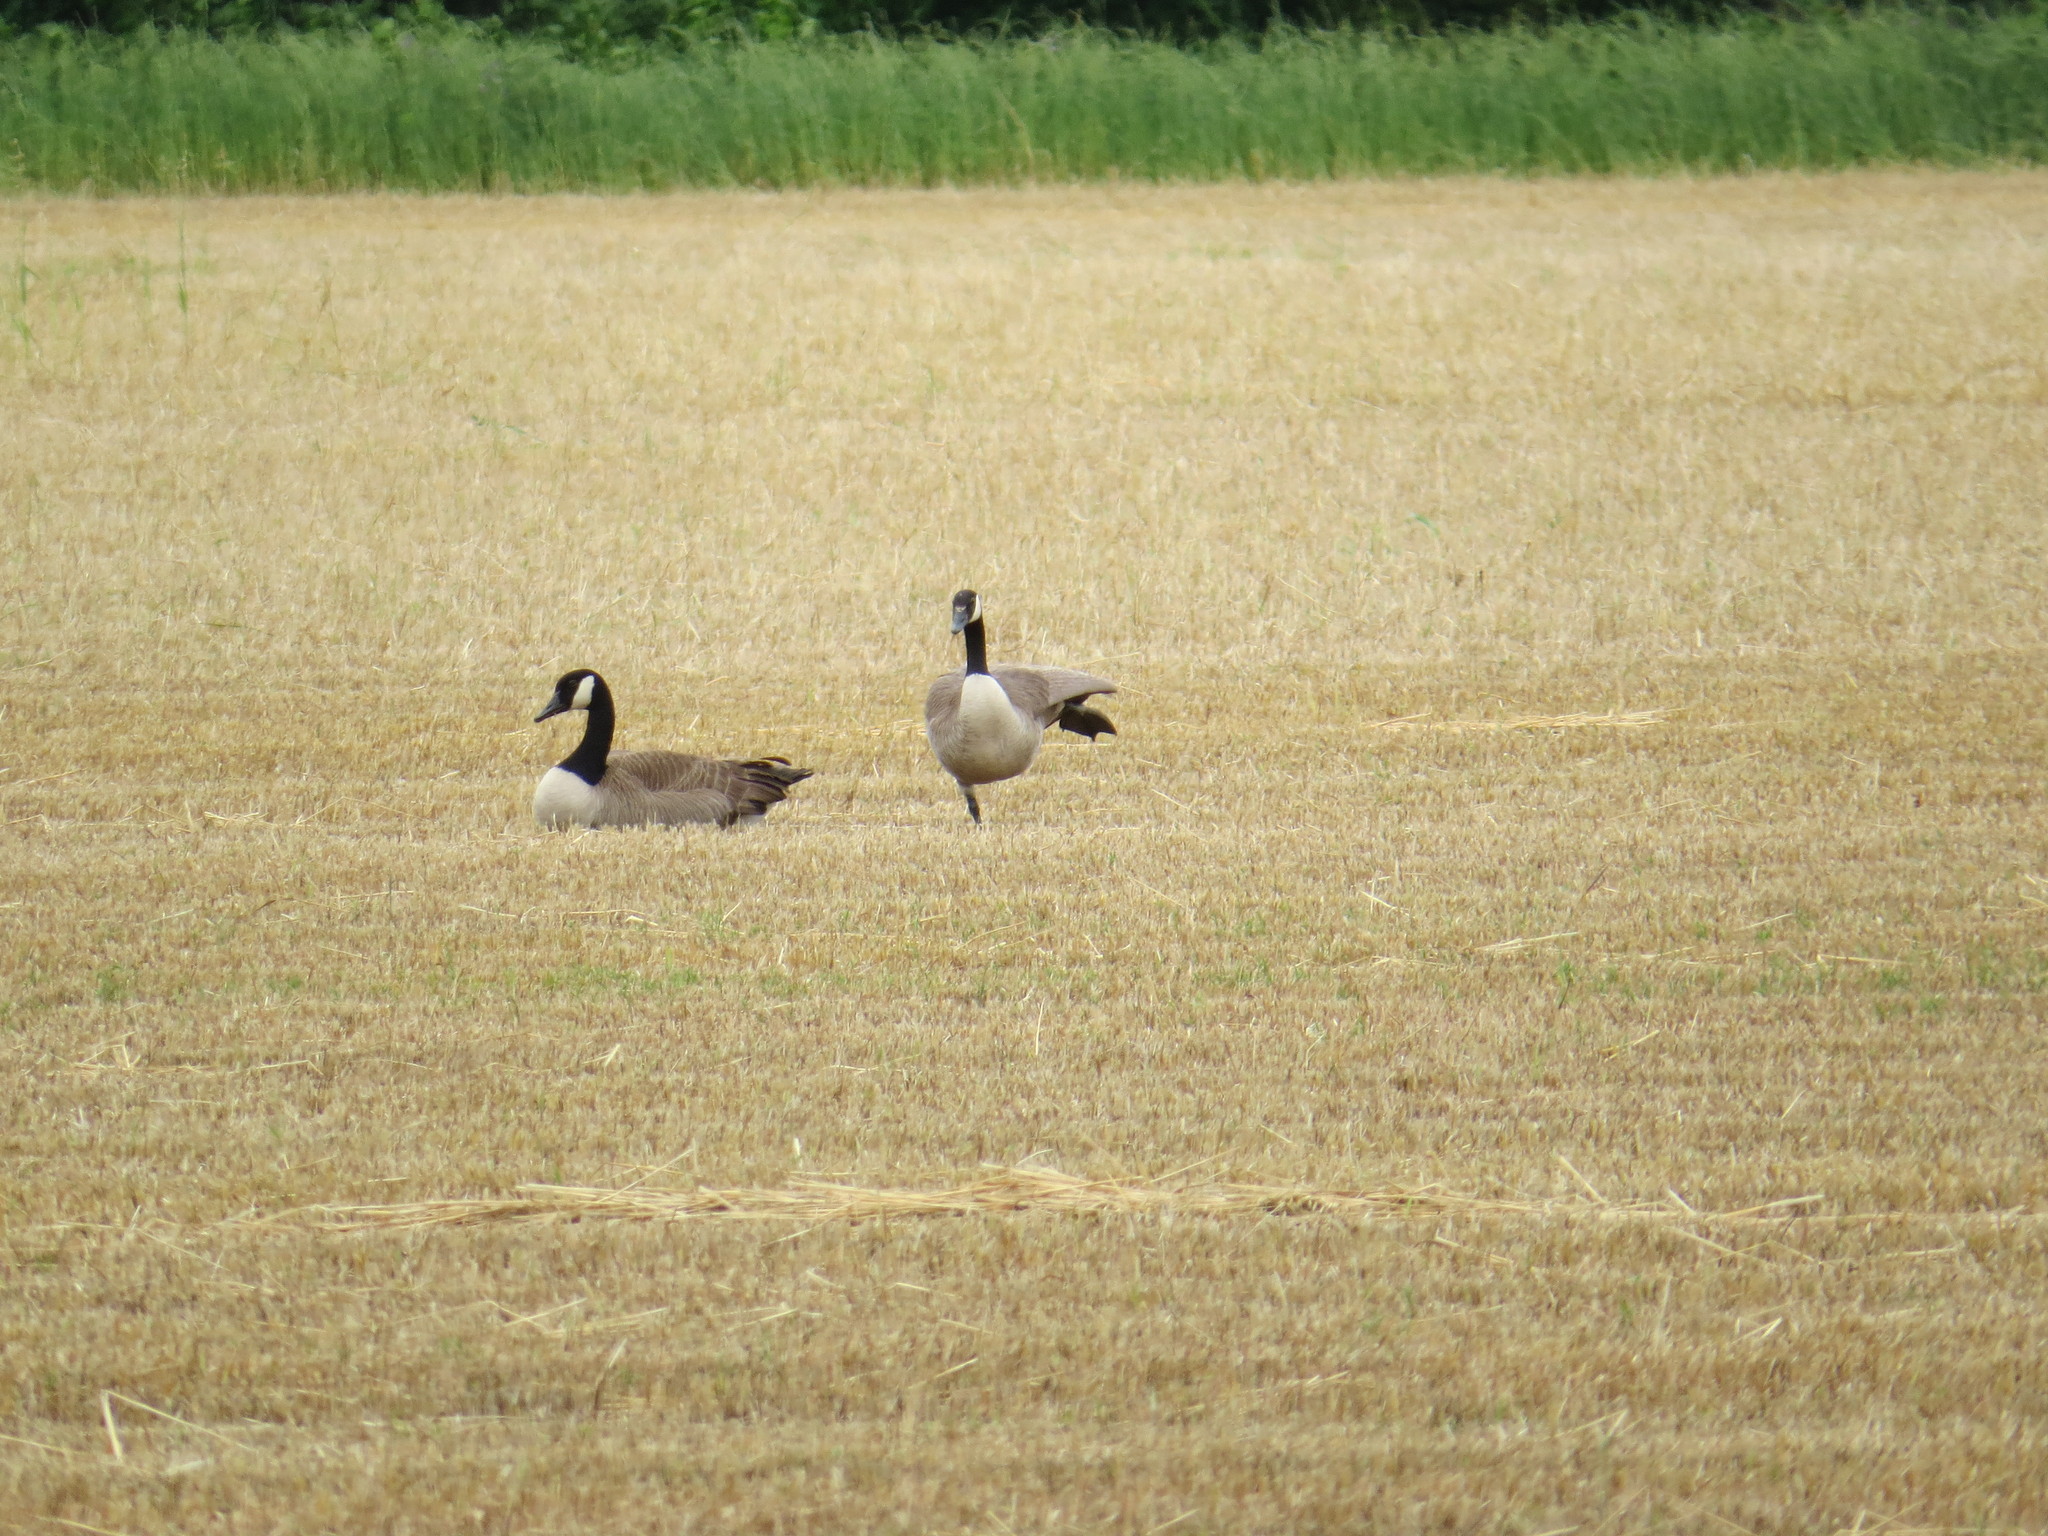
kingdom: Animalia
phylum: Chordata
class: Aves
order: Anseriformes
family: Anatidae
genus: Branta
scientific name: Branta canadensis
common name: Canada goose
